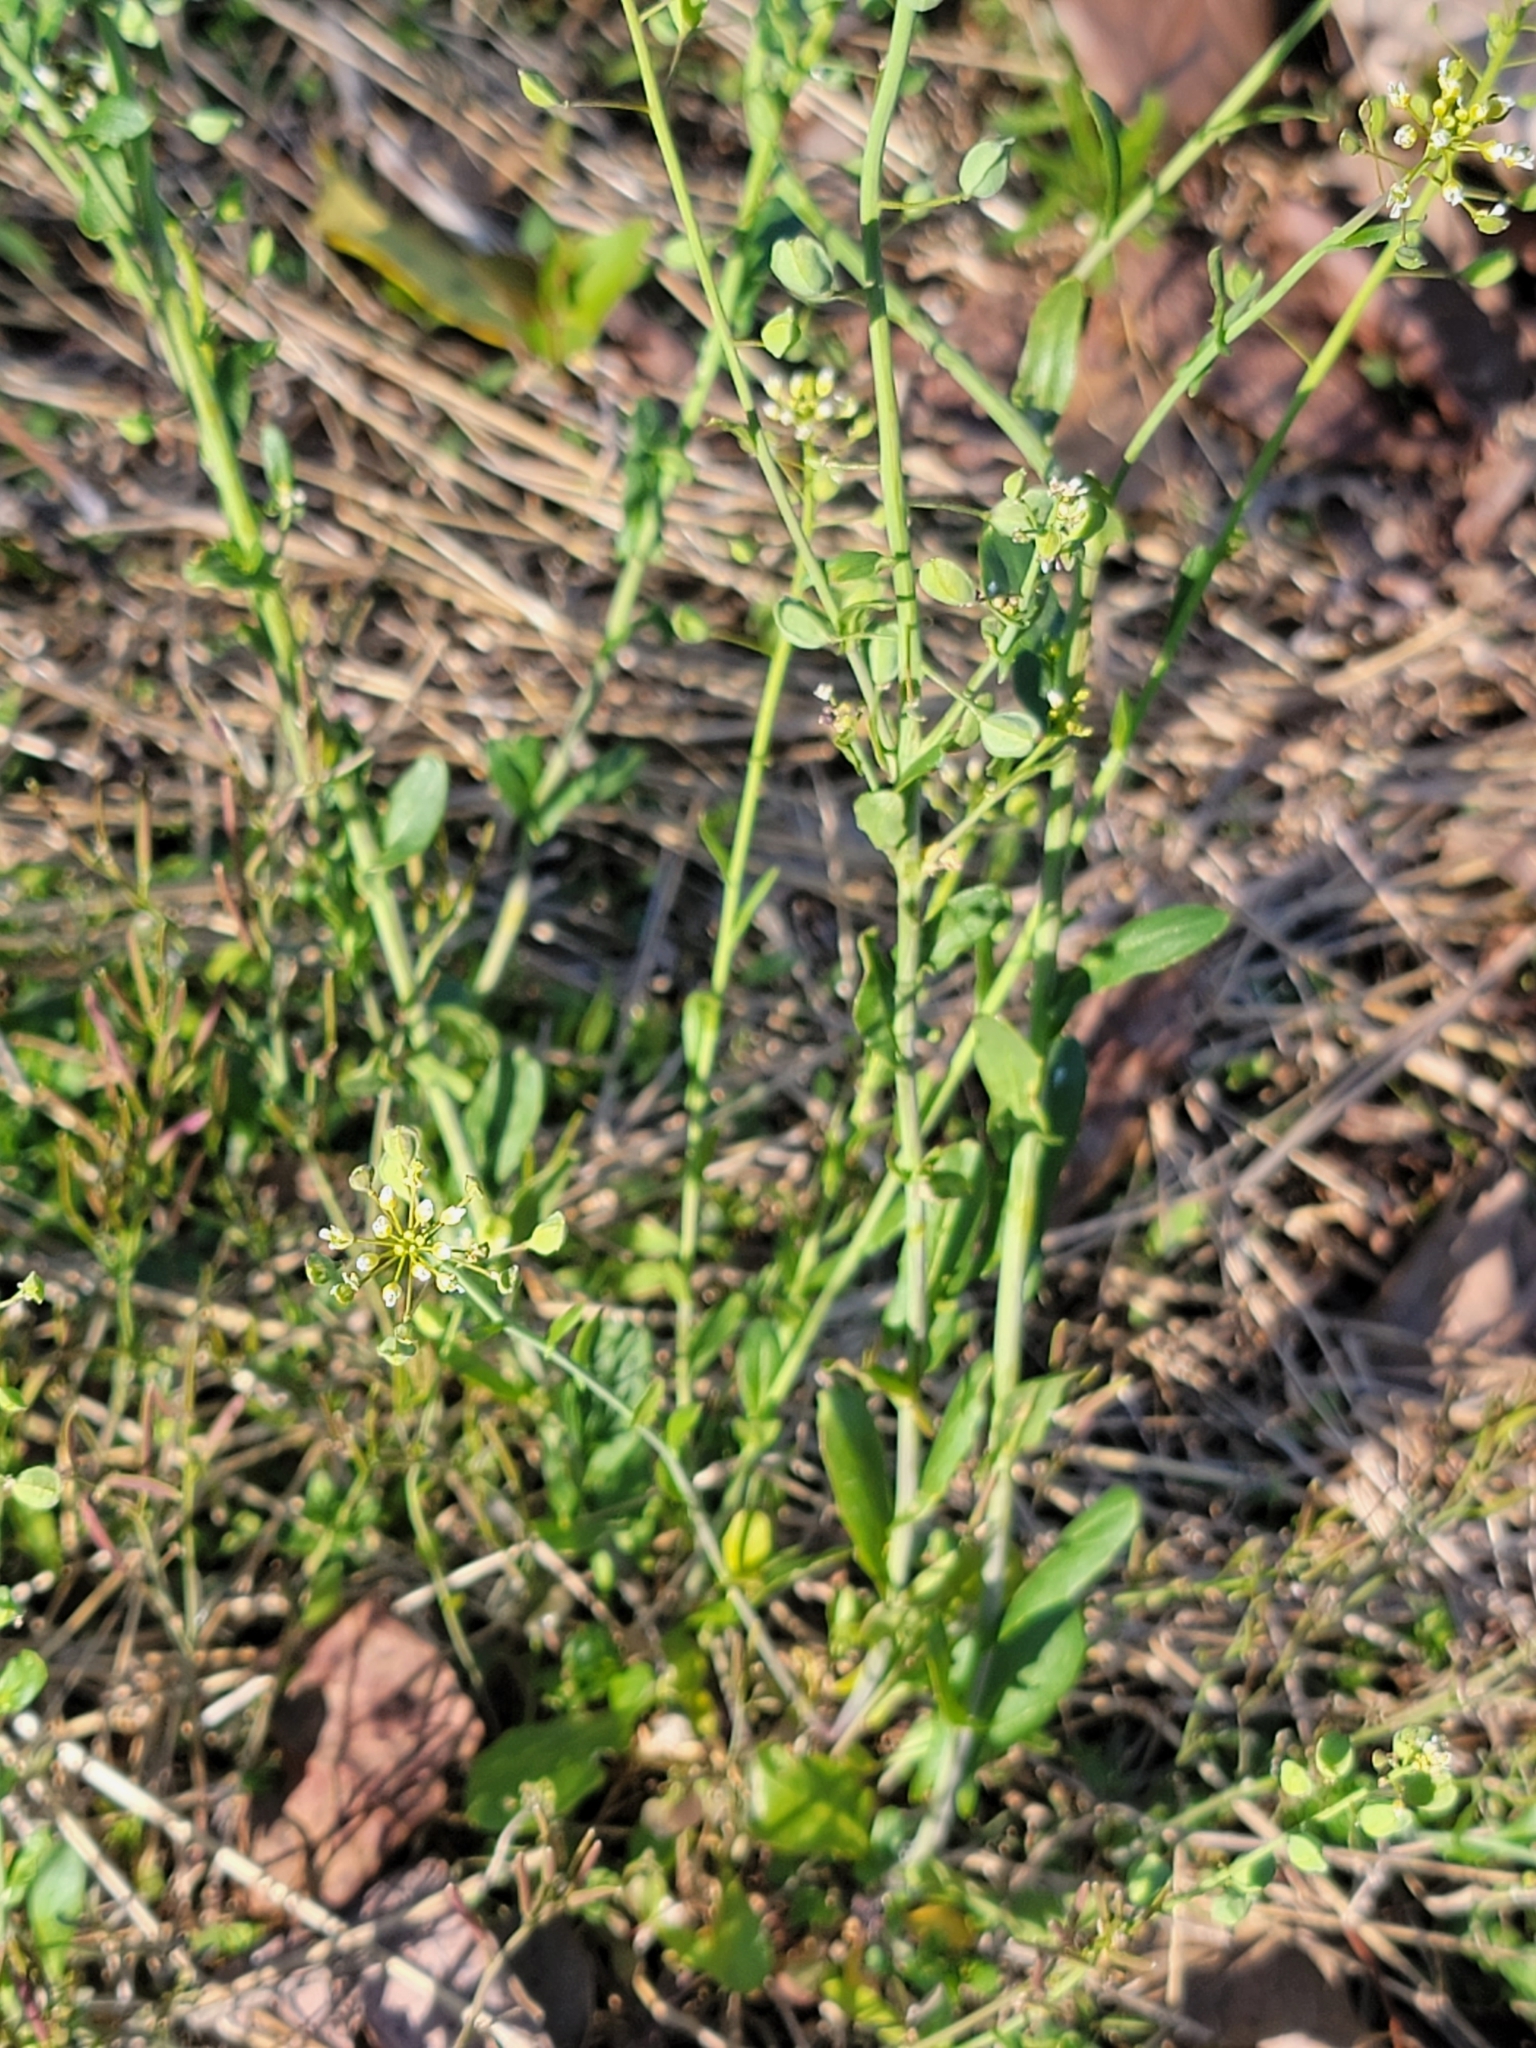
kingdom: Plantae
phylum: Tracheophyta
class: Magnoliopsida
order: Brassicales
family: Brassicaceae
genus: Mummenhoffia
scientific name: Mummenhoffia alliacea
